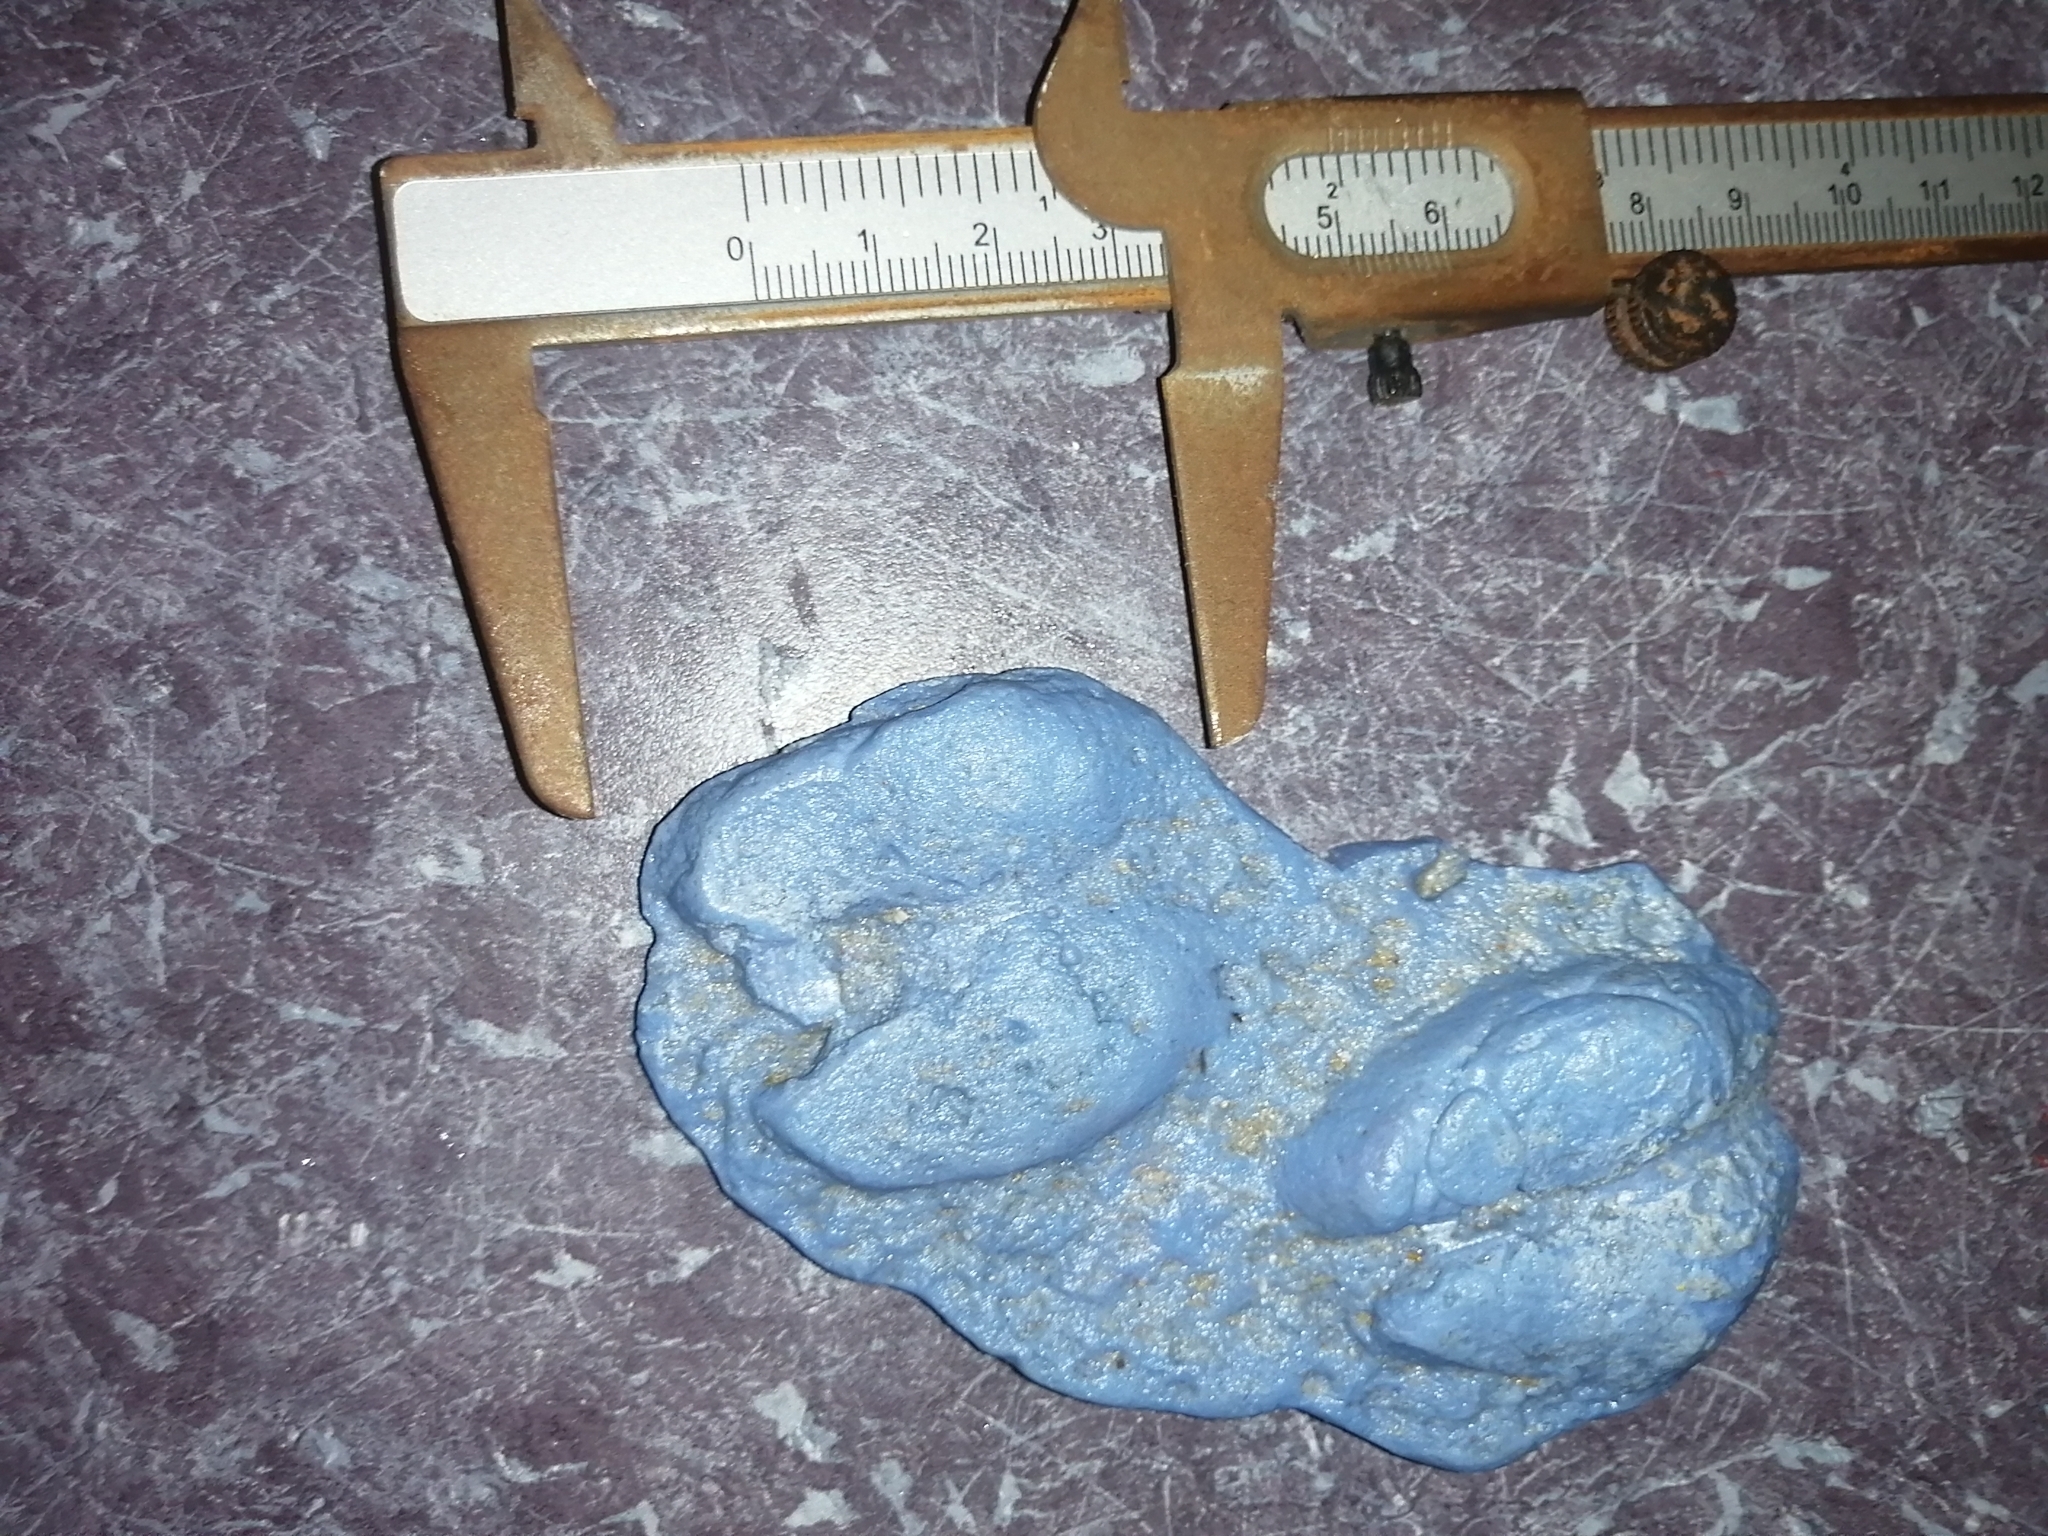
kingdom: Animalia
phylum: Chordata
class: Mammalia
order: Artiodactyla
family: Tayassuidae
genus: Pecari
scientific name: Pecari tajacu
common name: Collared peccary
